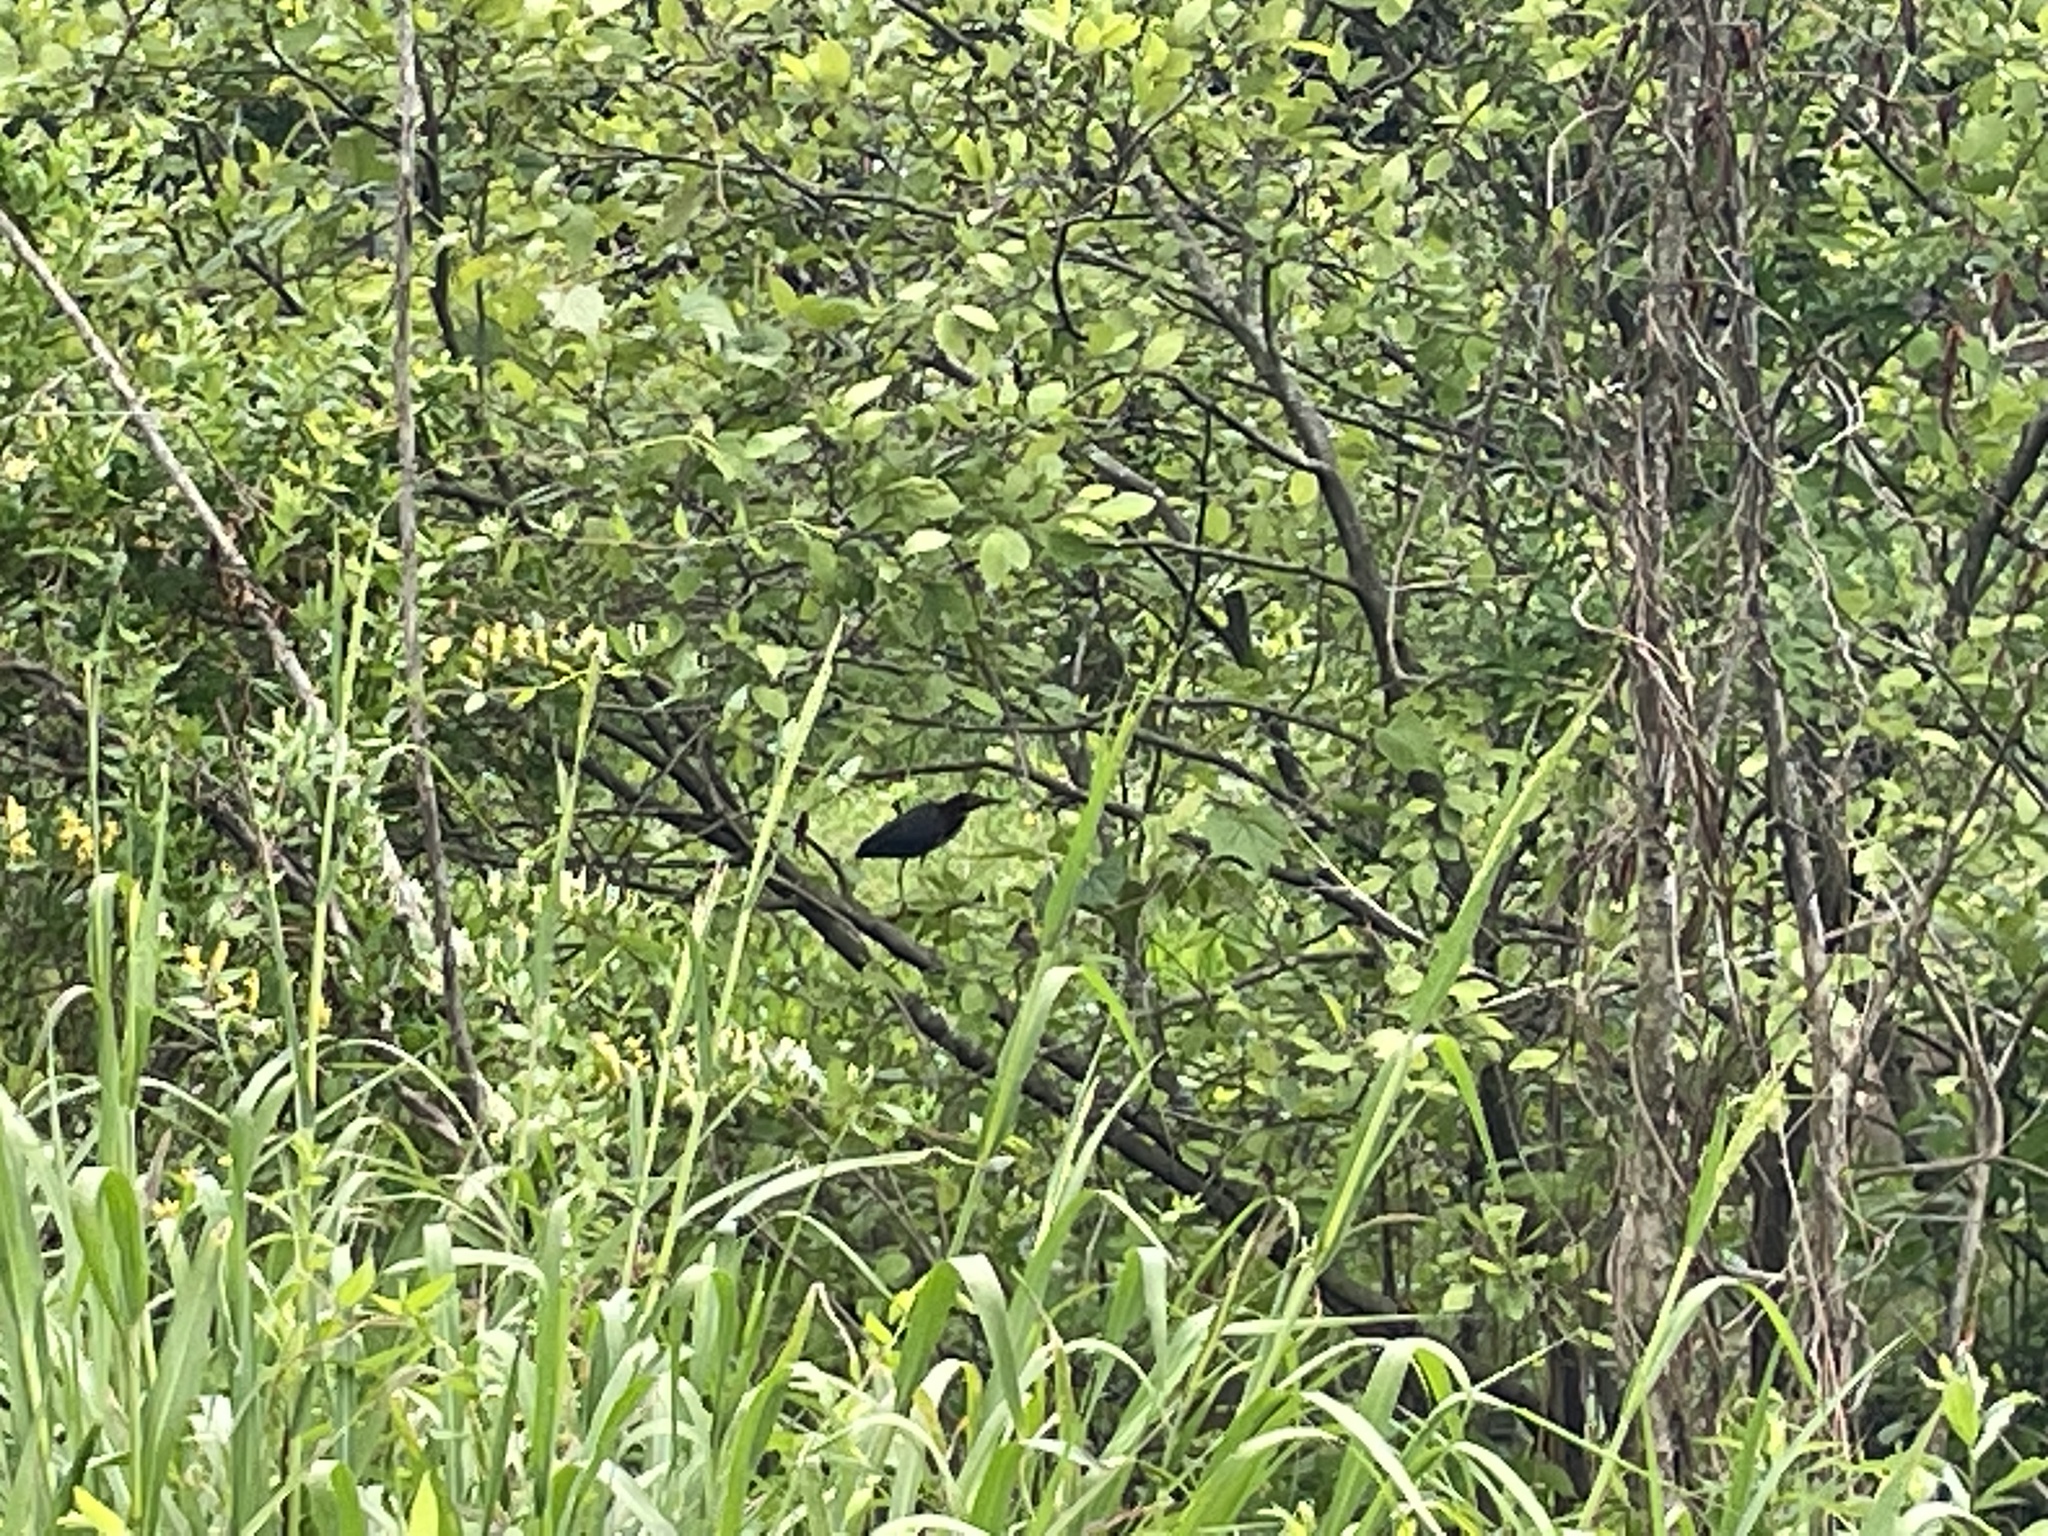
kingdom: Animalia
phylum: Chordata
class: Aves
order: Pelecaniformes
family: Ardeidae
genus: Butorides
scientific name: Butorides virescens
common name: Green heron
